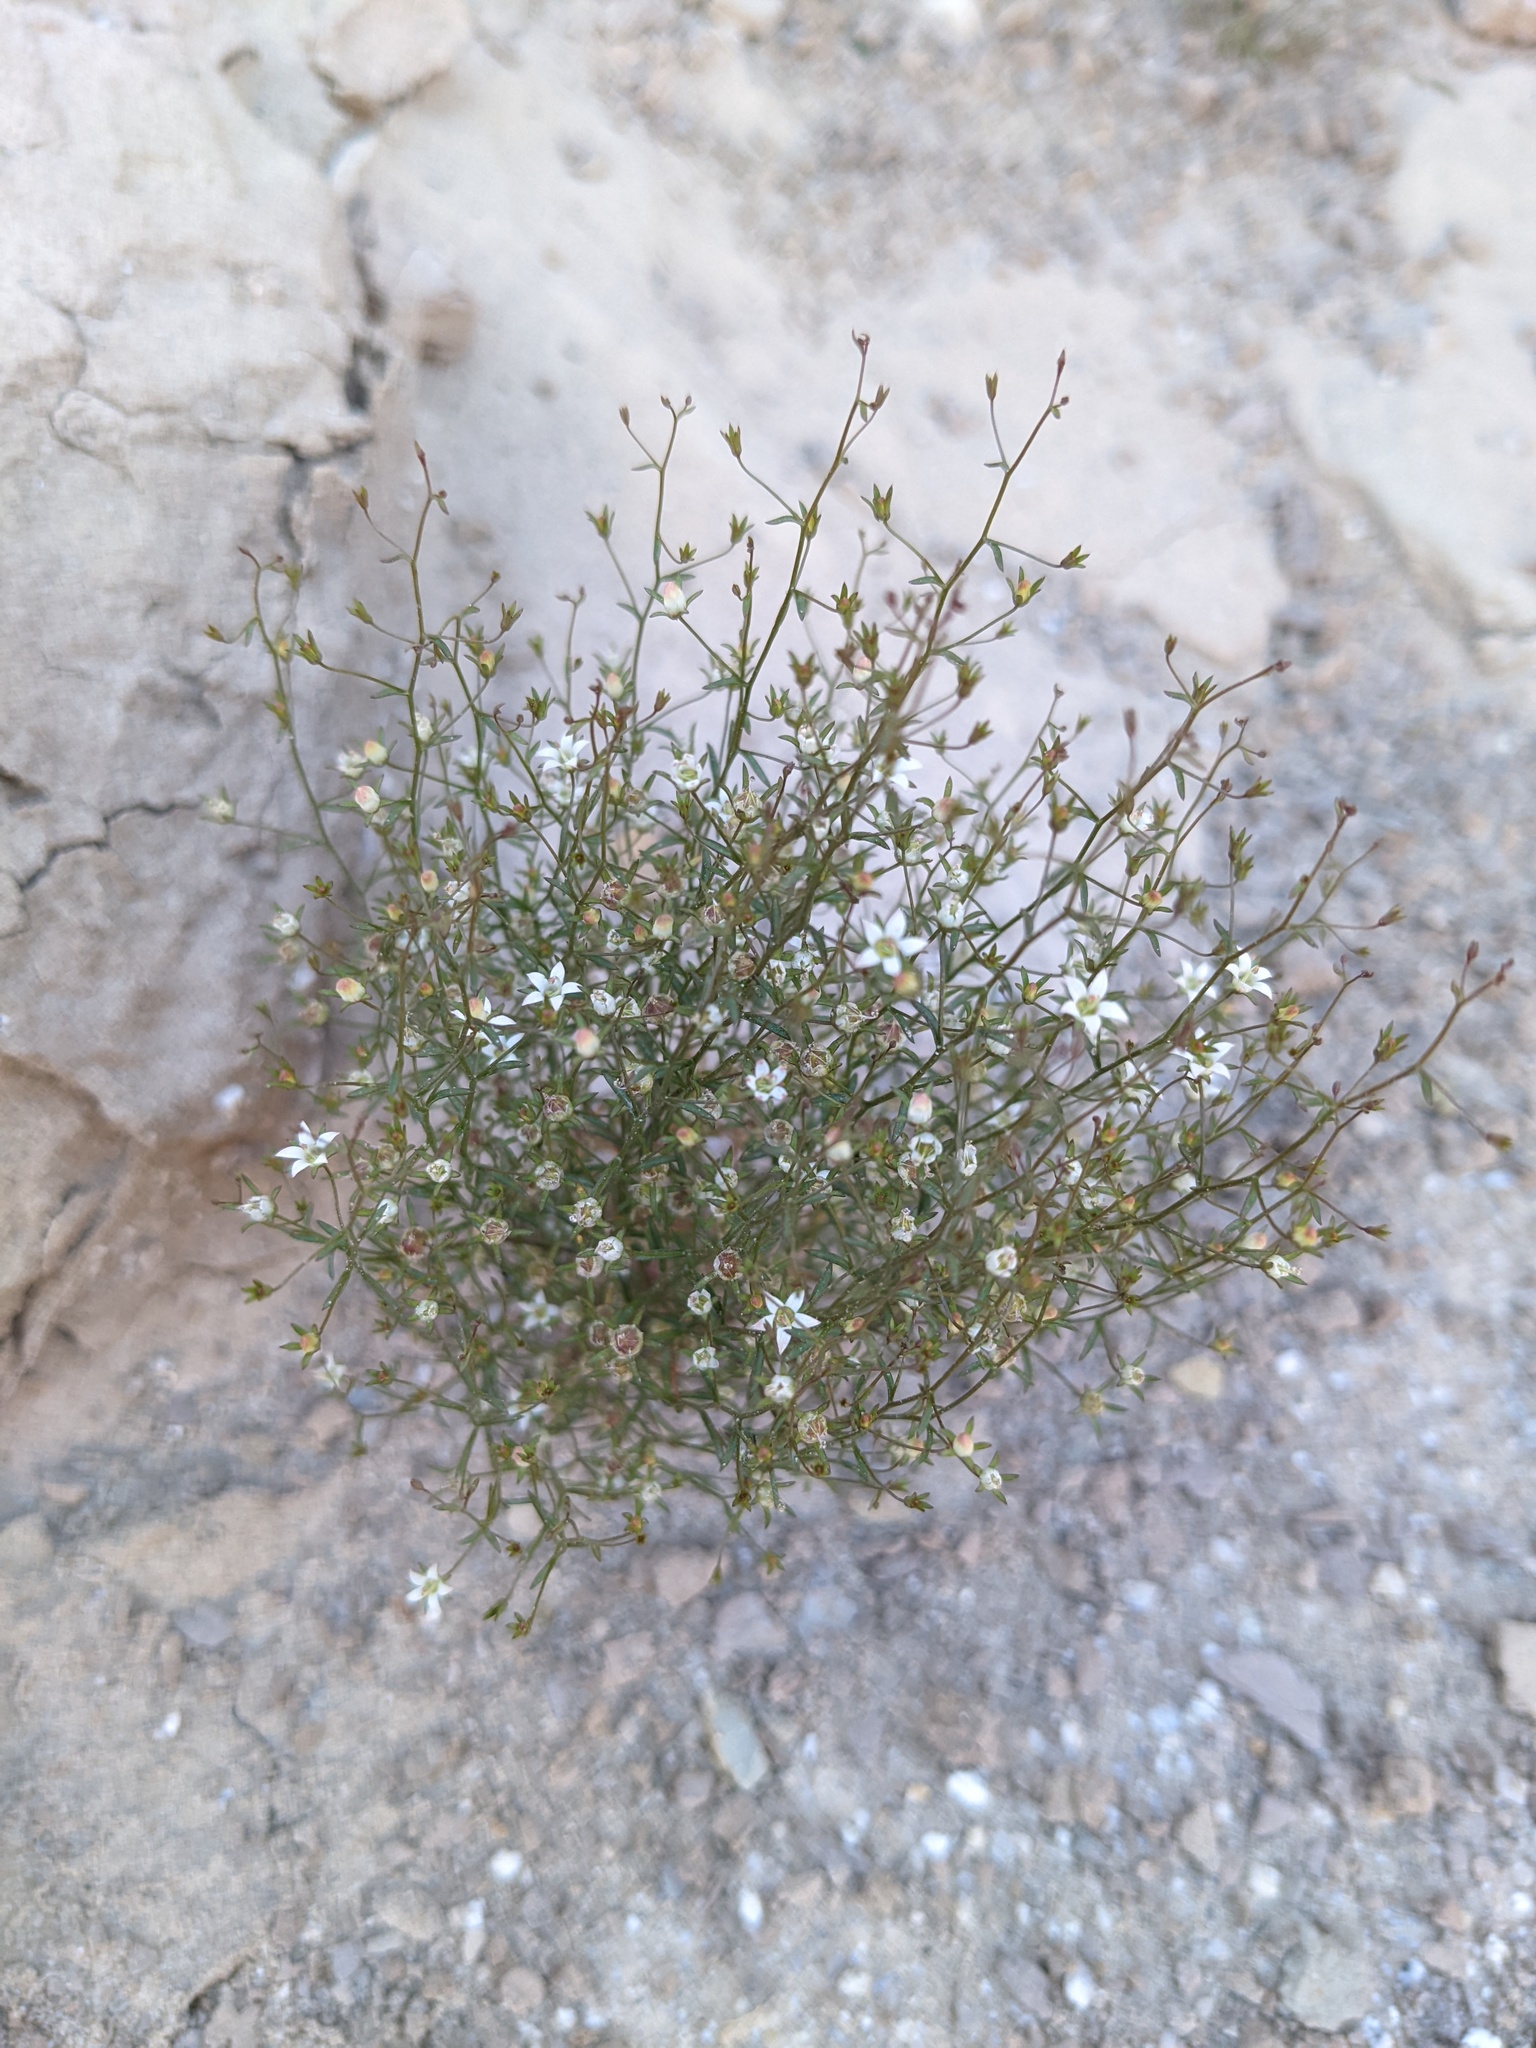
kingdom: Plantae
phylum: Tracheophyta
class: Magnoliopsida
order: Asterales
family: Campanulaceae
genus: Nemacladus
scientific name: Nemacladus glanduliferus
